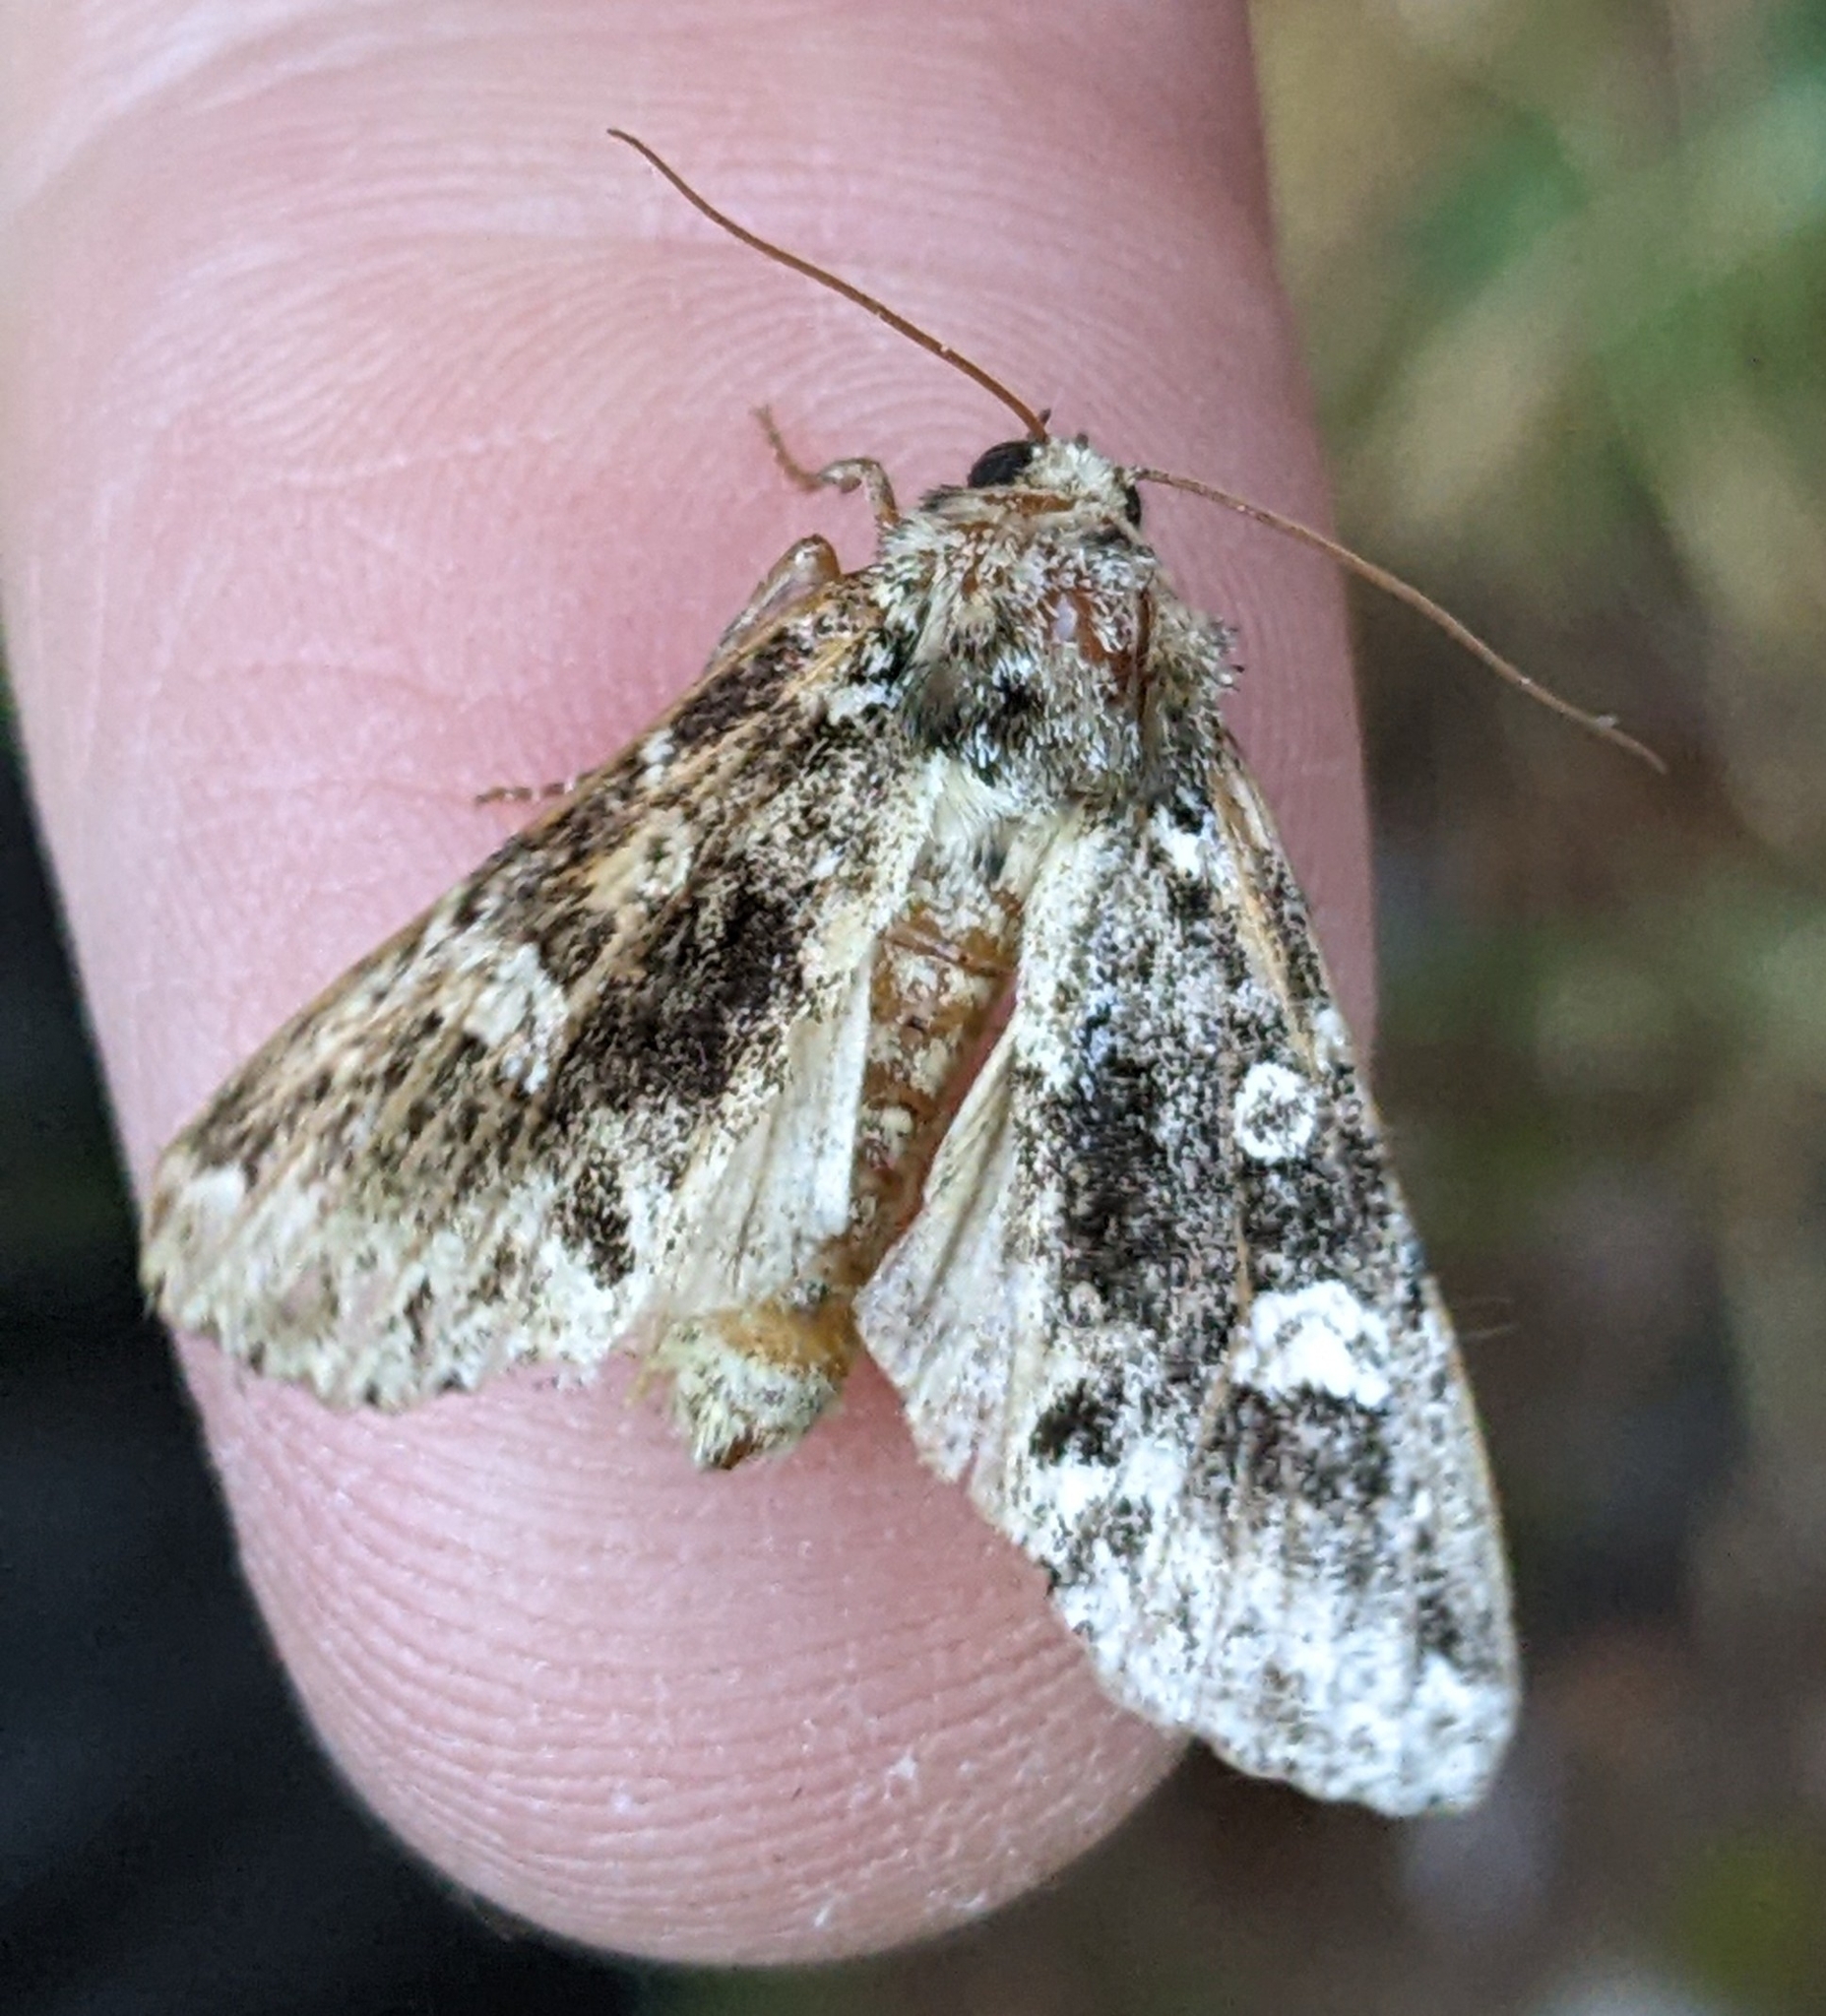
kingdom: Animalia
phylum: Arthropoda
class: Insecta
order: Lepidoptera
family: Noctuidae
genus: Melanchra
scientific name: Melanchra adjuncta
